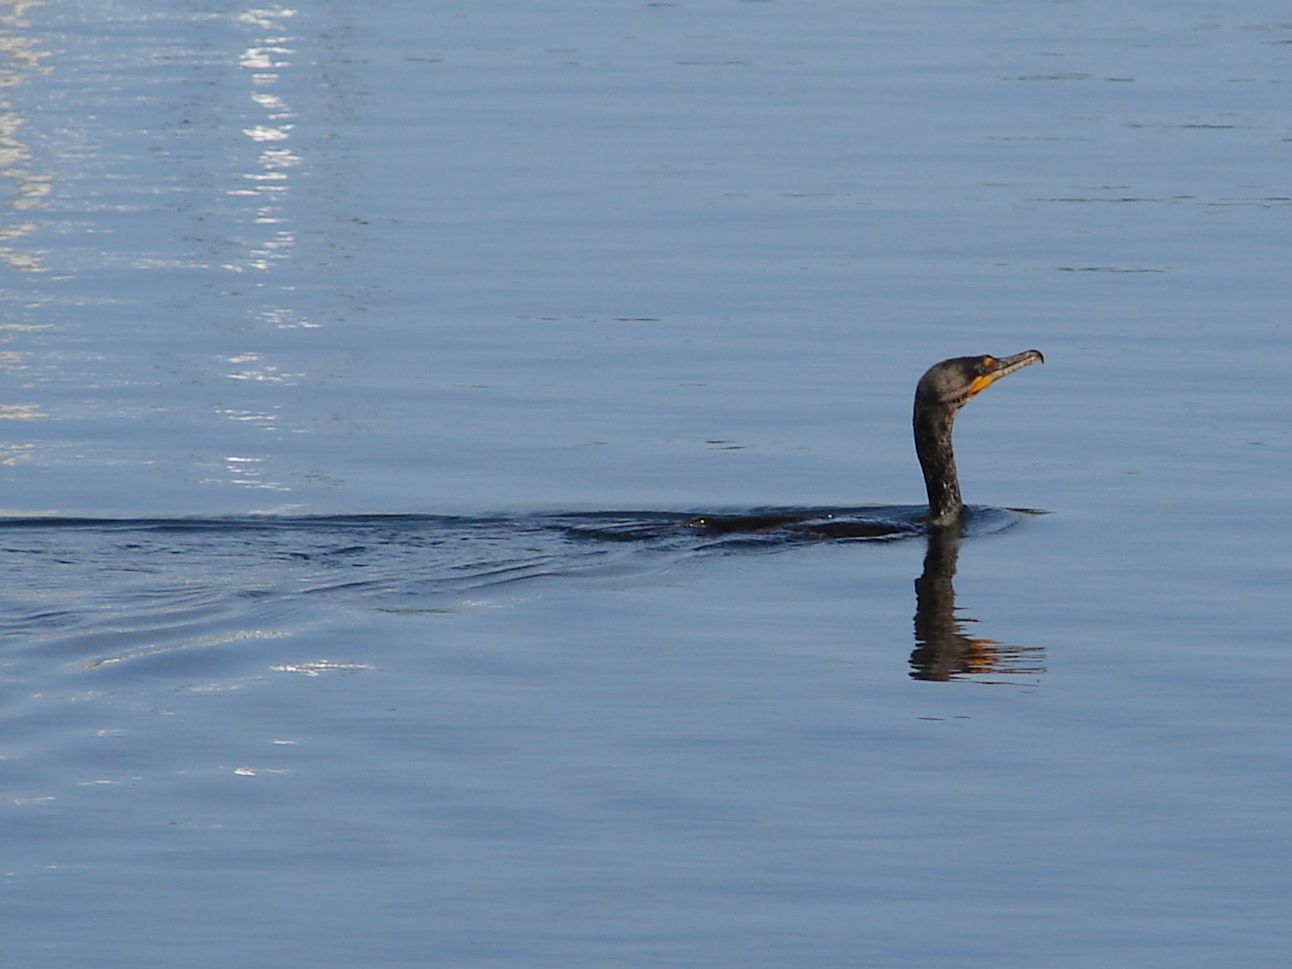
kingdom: Animalia
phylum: Chordata
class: Aves
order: Suliformes
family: Phalacrocoracidae
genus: Phalacrocorax
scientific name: Phalacrocorax auritus
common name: Double-crested cormorant
